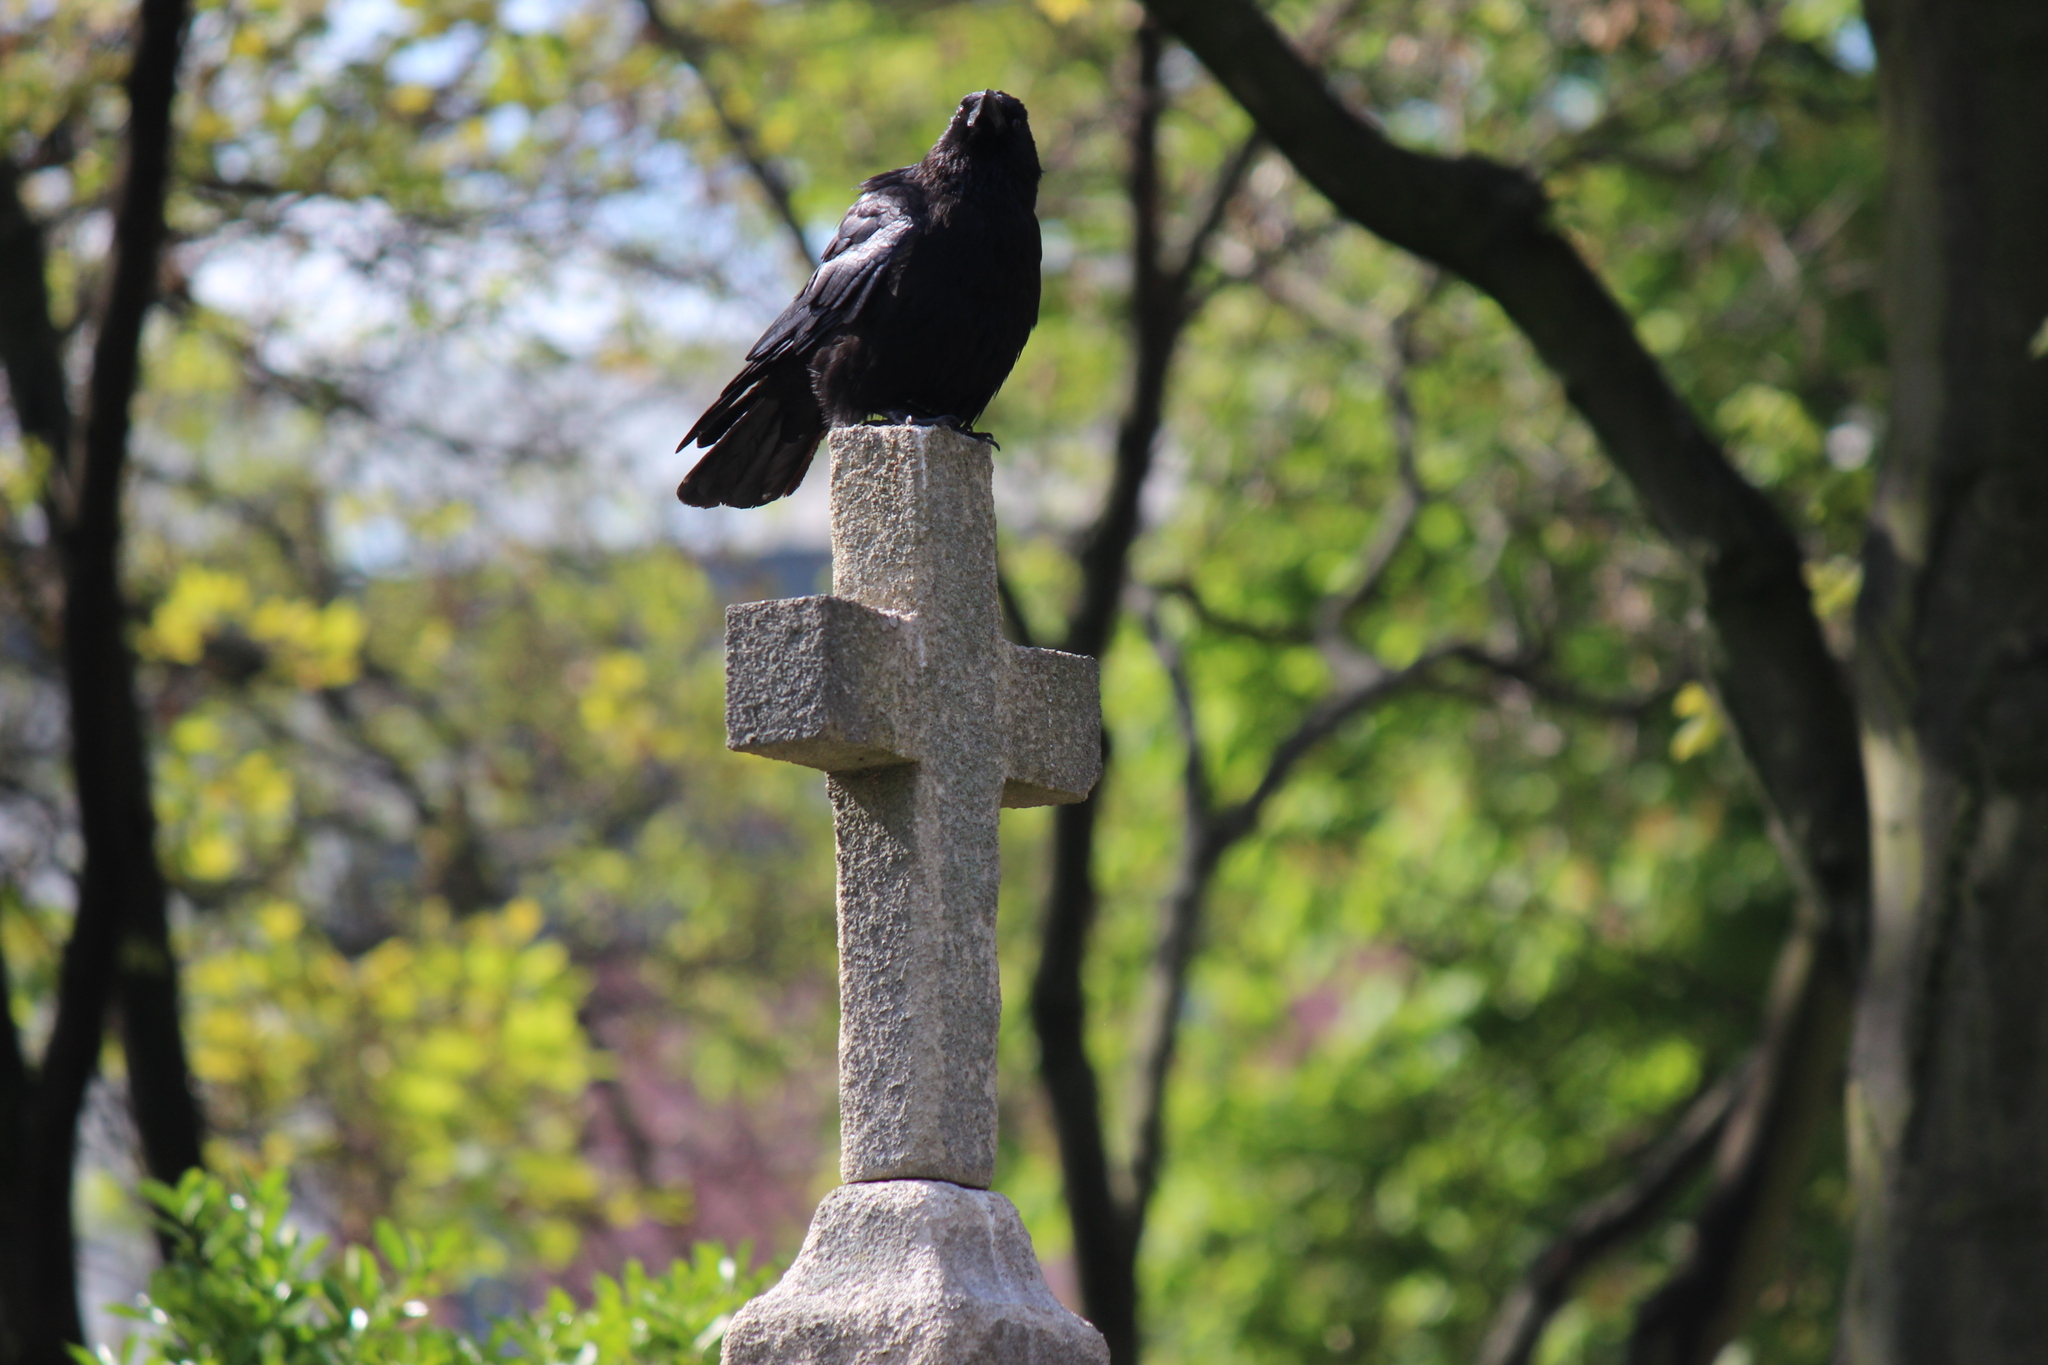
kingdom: Animalia
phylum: Chordata
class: Aves
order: Passeriformes
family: Corvidae
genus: Corvus
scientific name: Corvus corone
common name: Carrion crow
